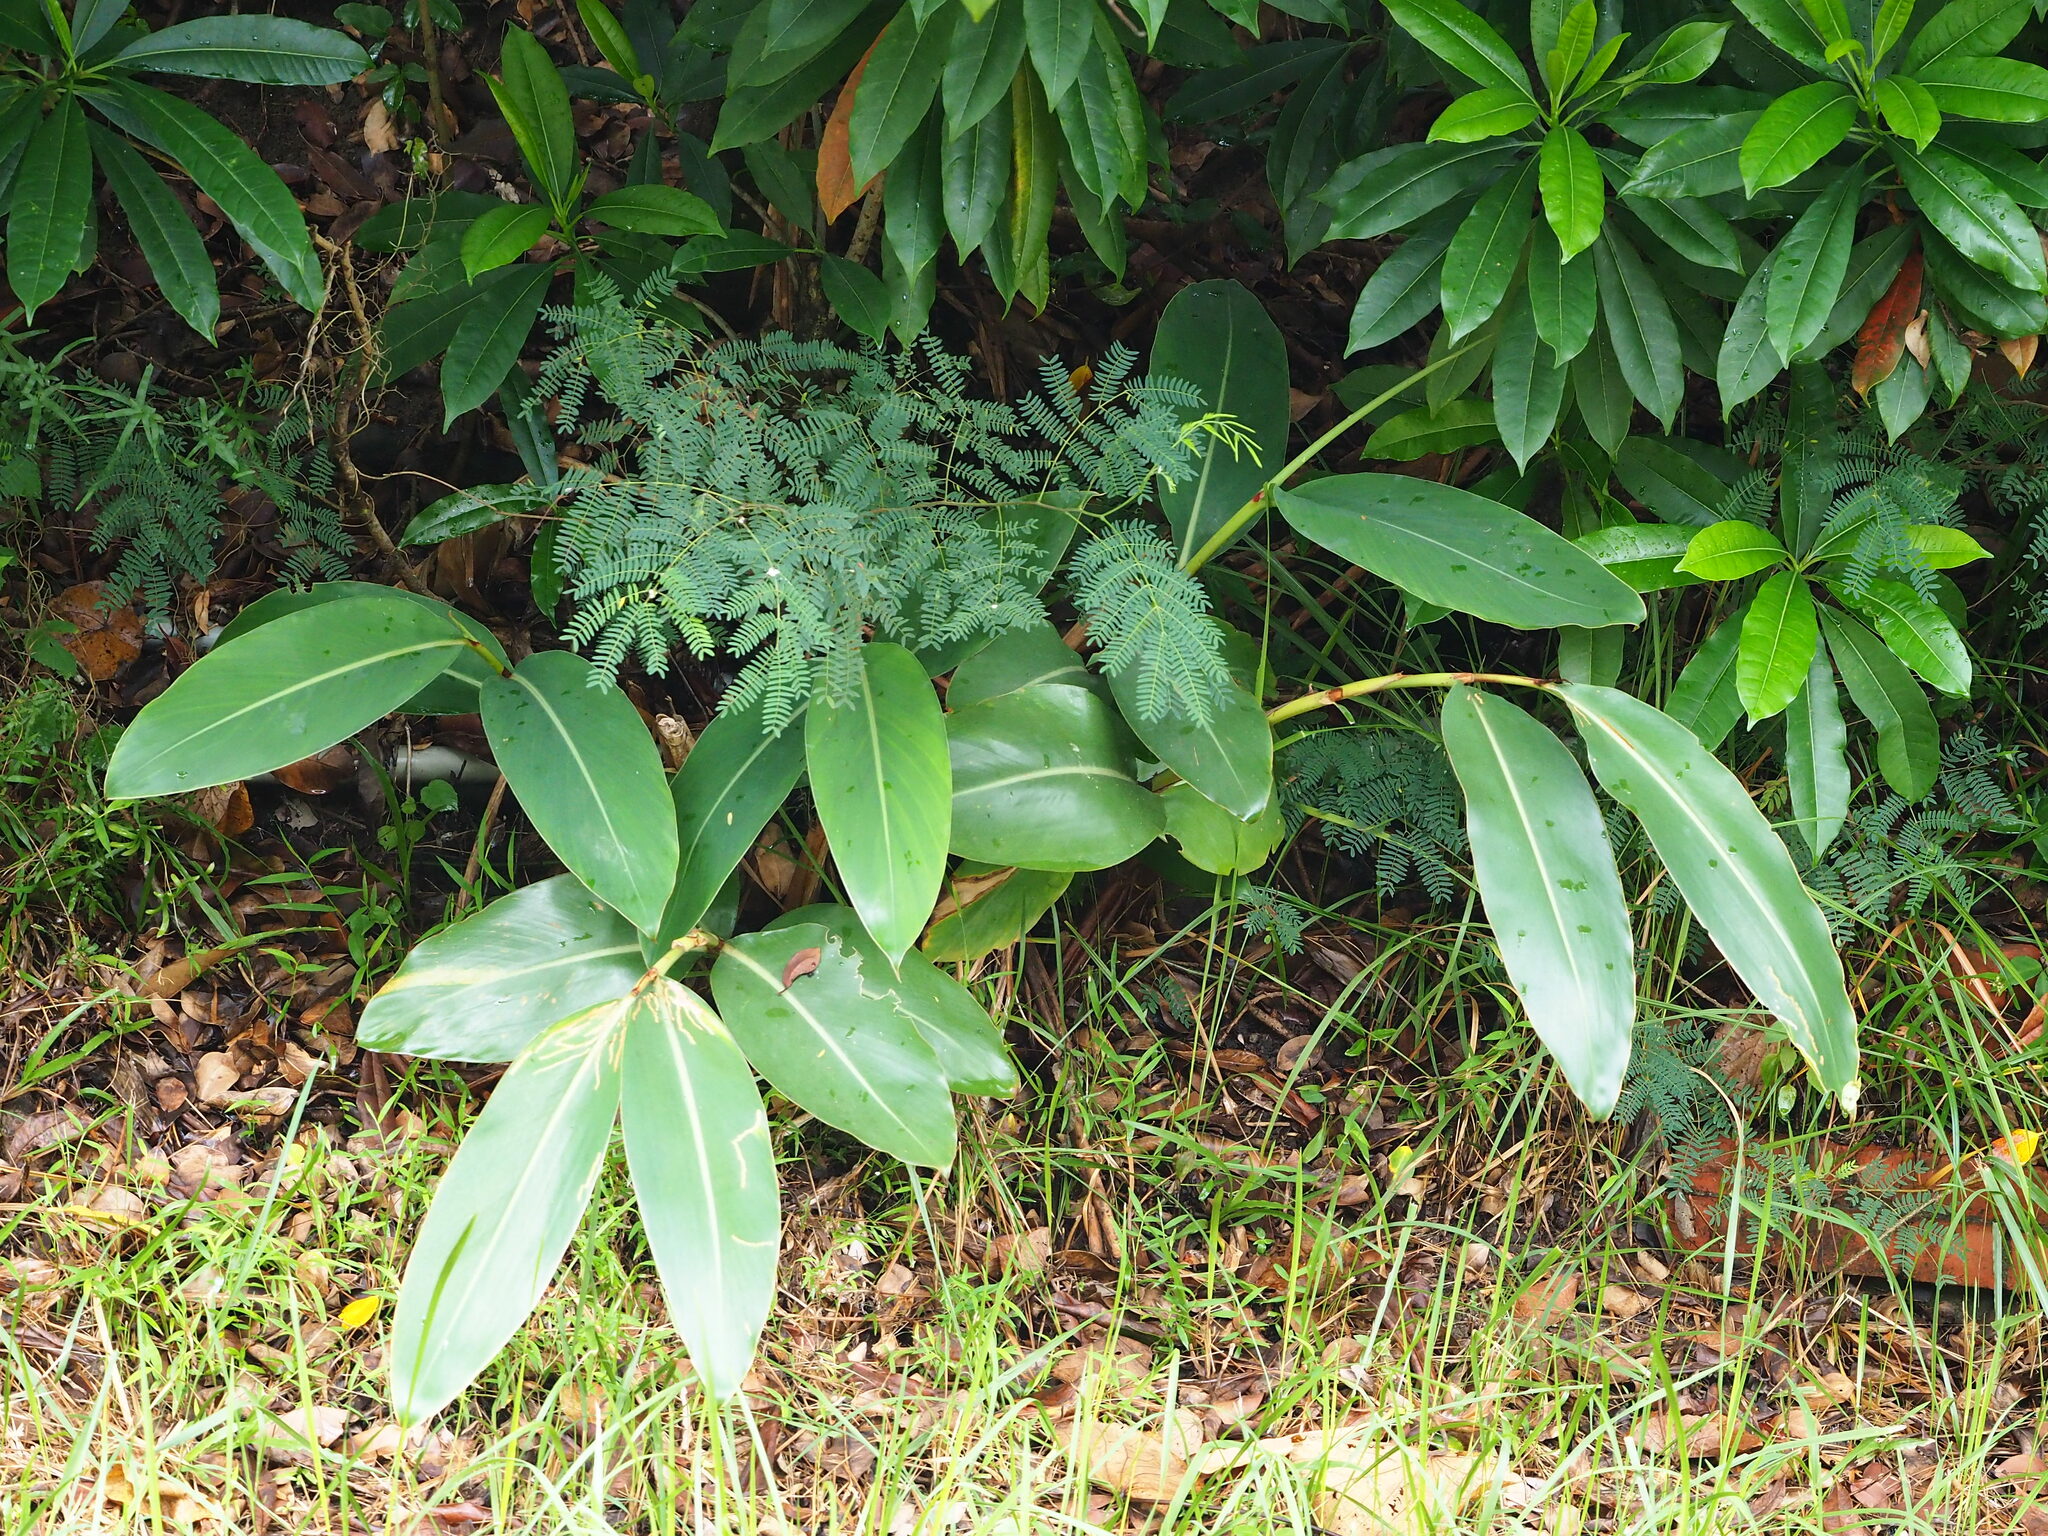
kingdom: Plantae
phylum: Tracheophyta
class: Liliopsida
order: Zingiberales
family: Zingiberaceae
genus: Alpinia
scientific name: Alpinia koshunensis
